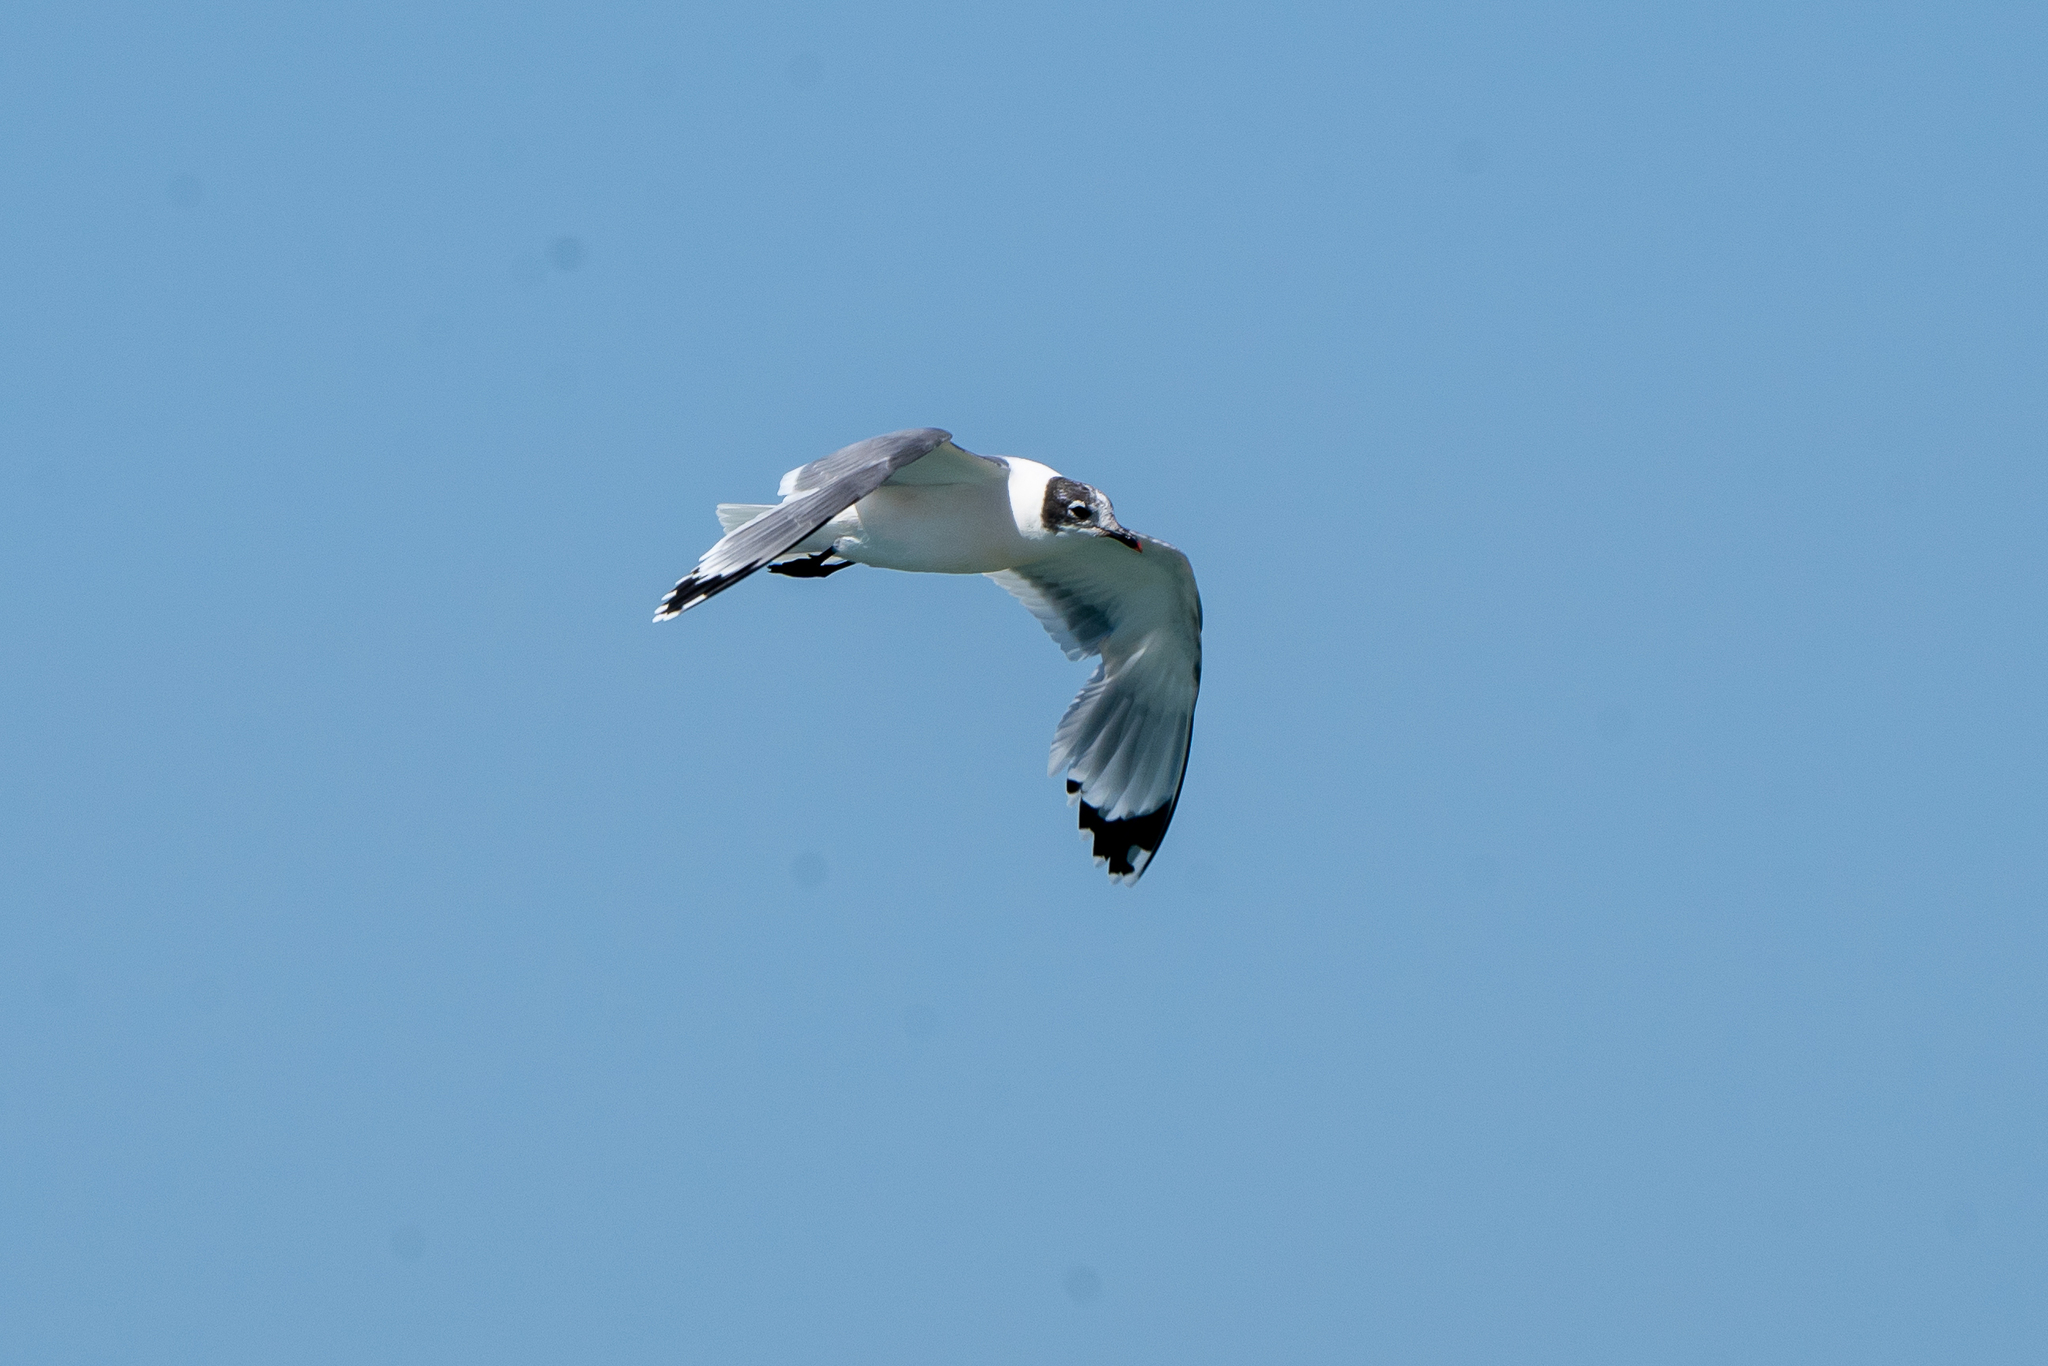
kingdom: Animalia
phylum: Chordata
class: Aves
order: Charadriiformes
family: Laridae
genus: Leucophaeus
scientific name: Leucophaeus pipixcan
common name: Franklin's gull
